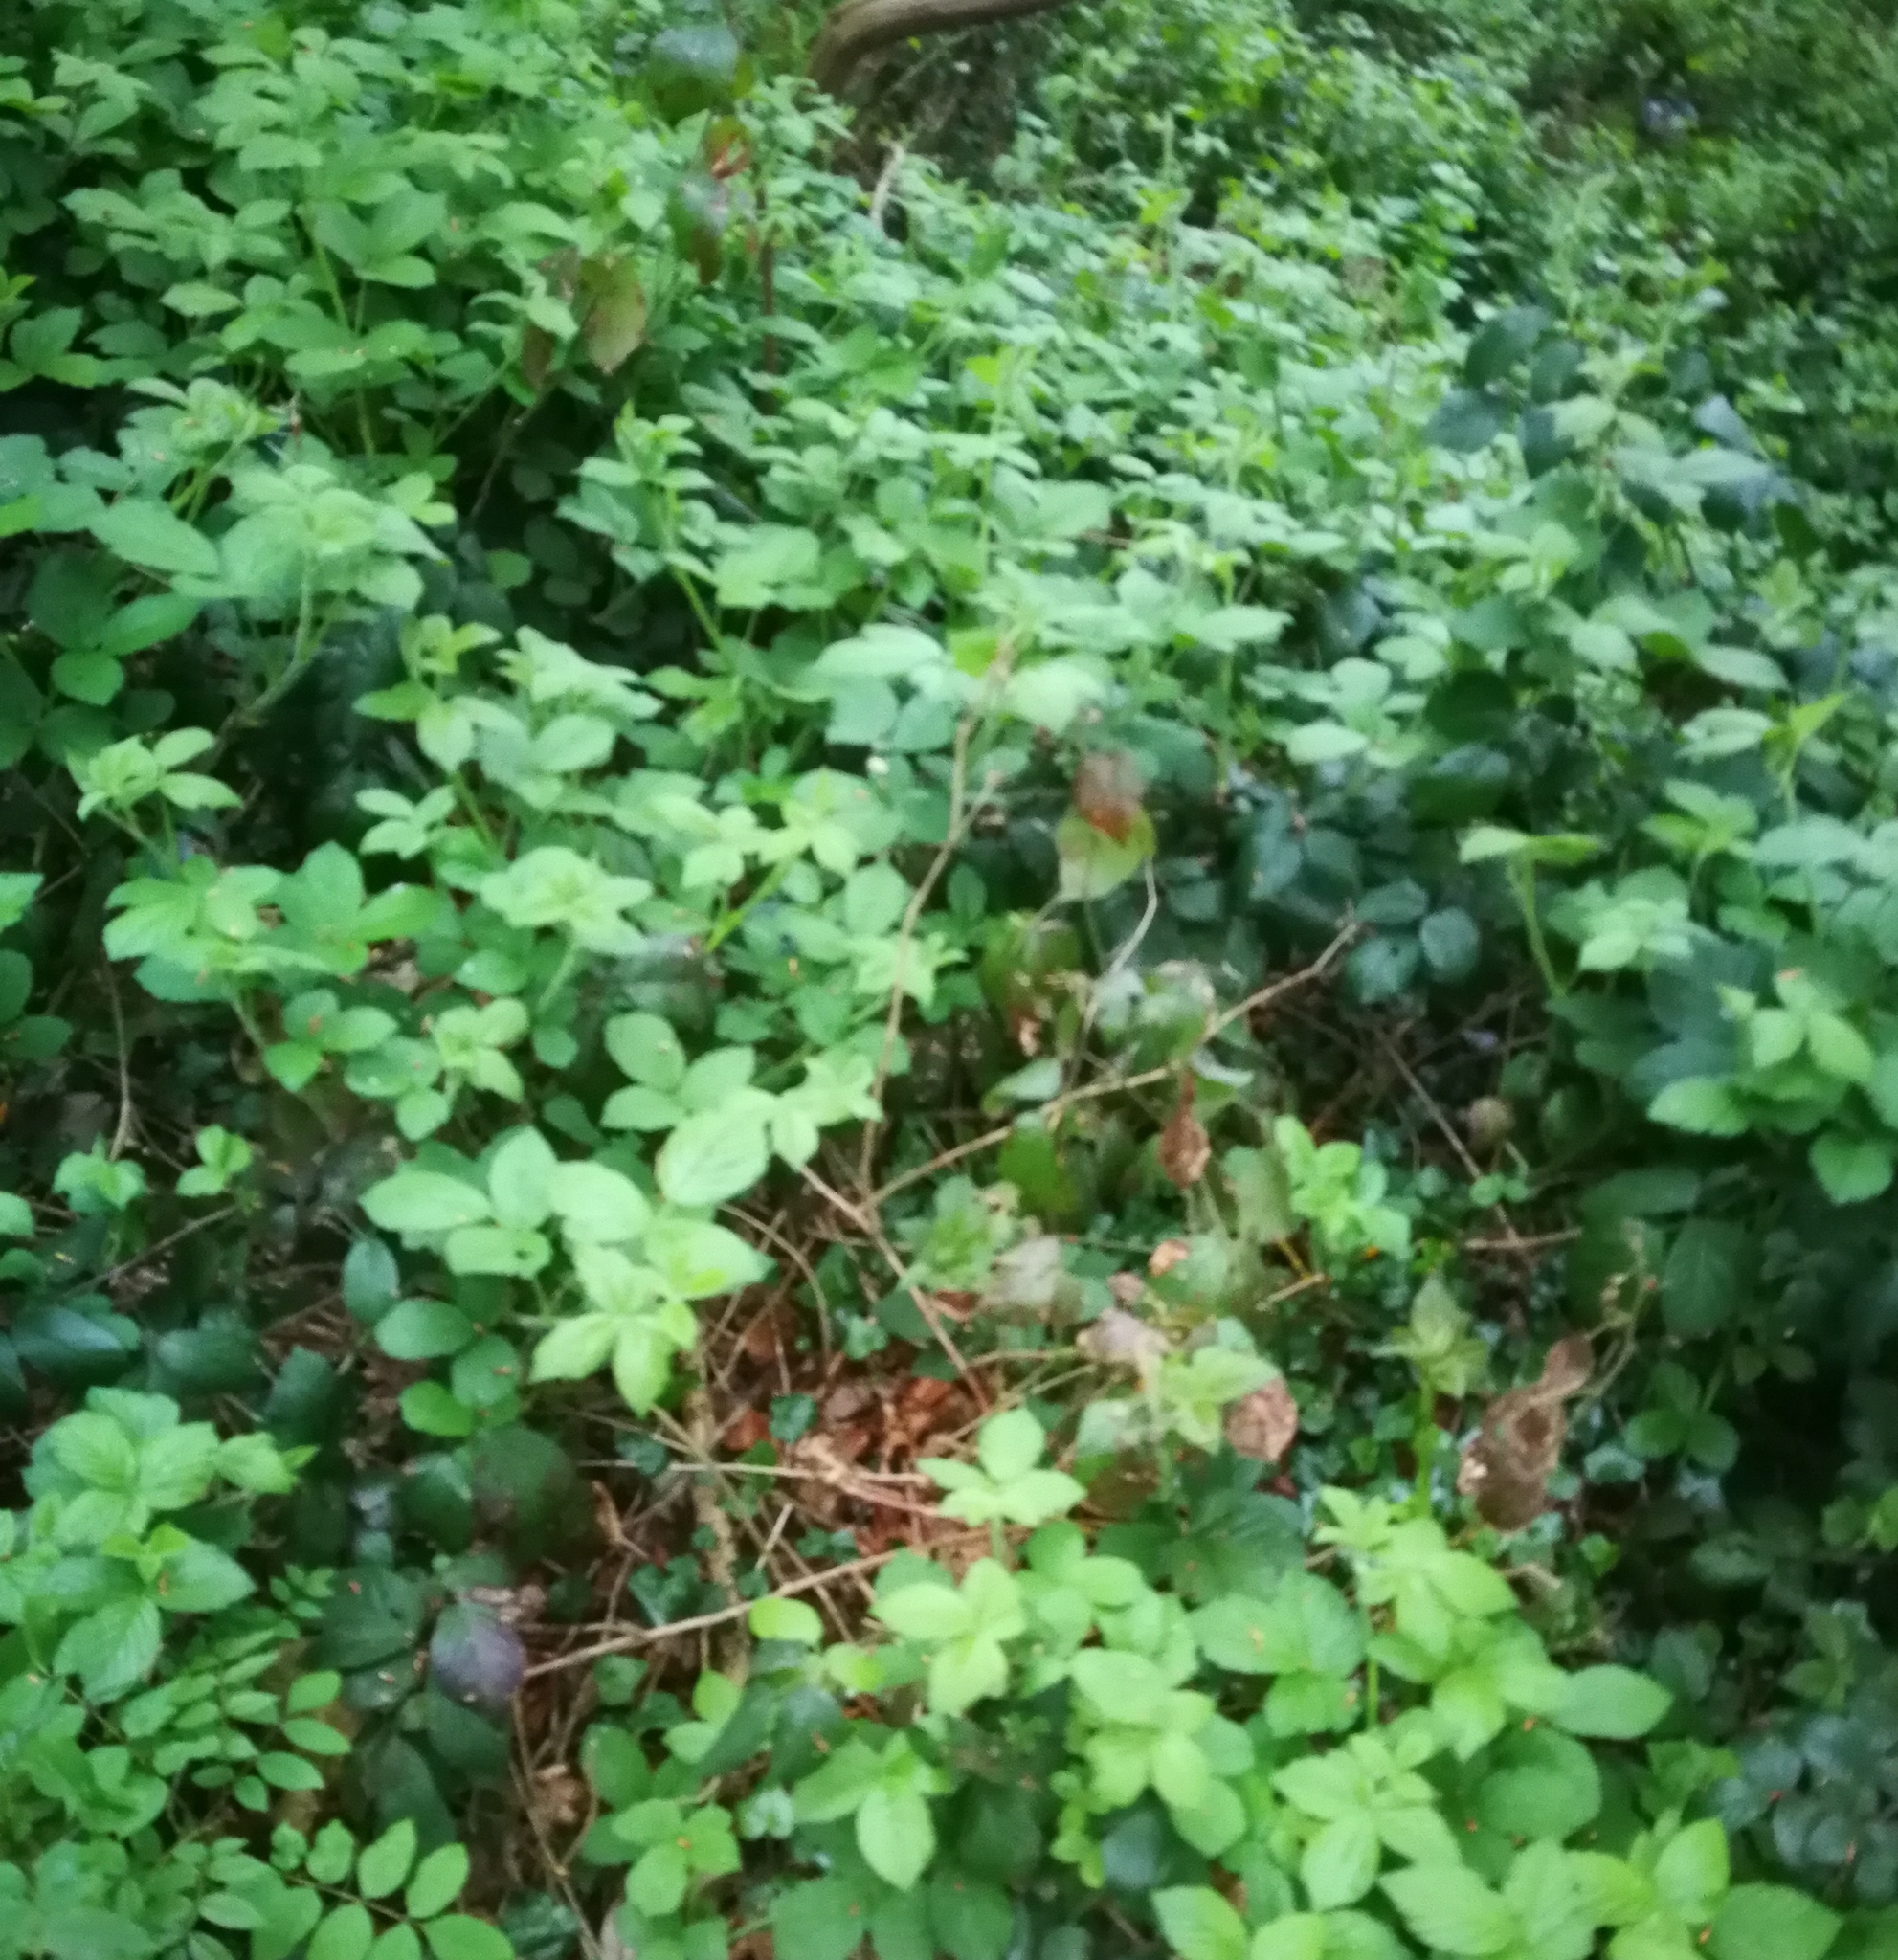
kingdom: Plantae
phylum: Tracheophyta
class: Magnoliopsida
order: Rosales
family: Rosaceae
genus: Rubus
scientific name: Rubus
